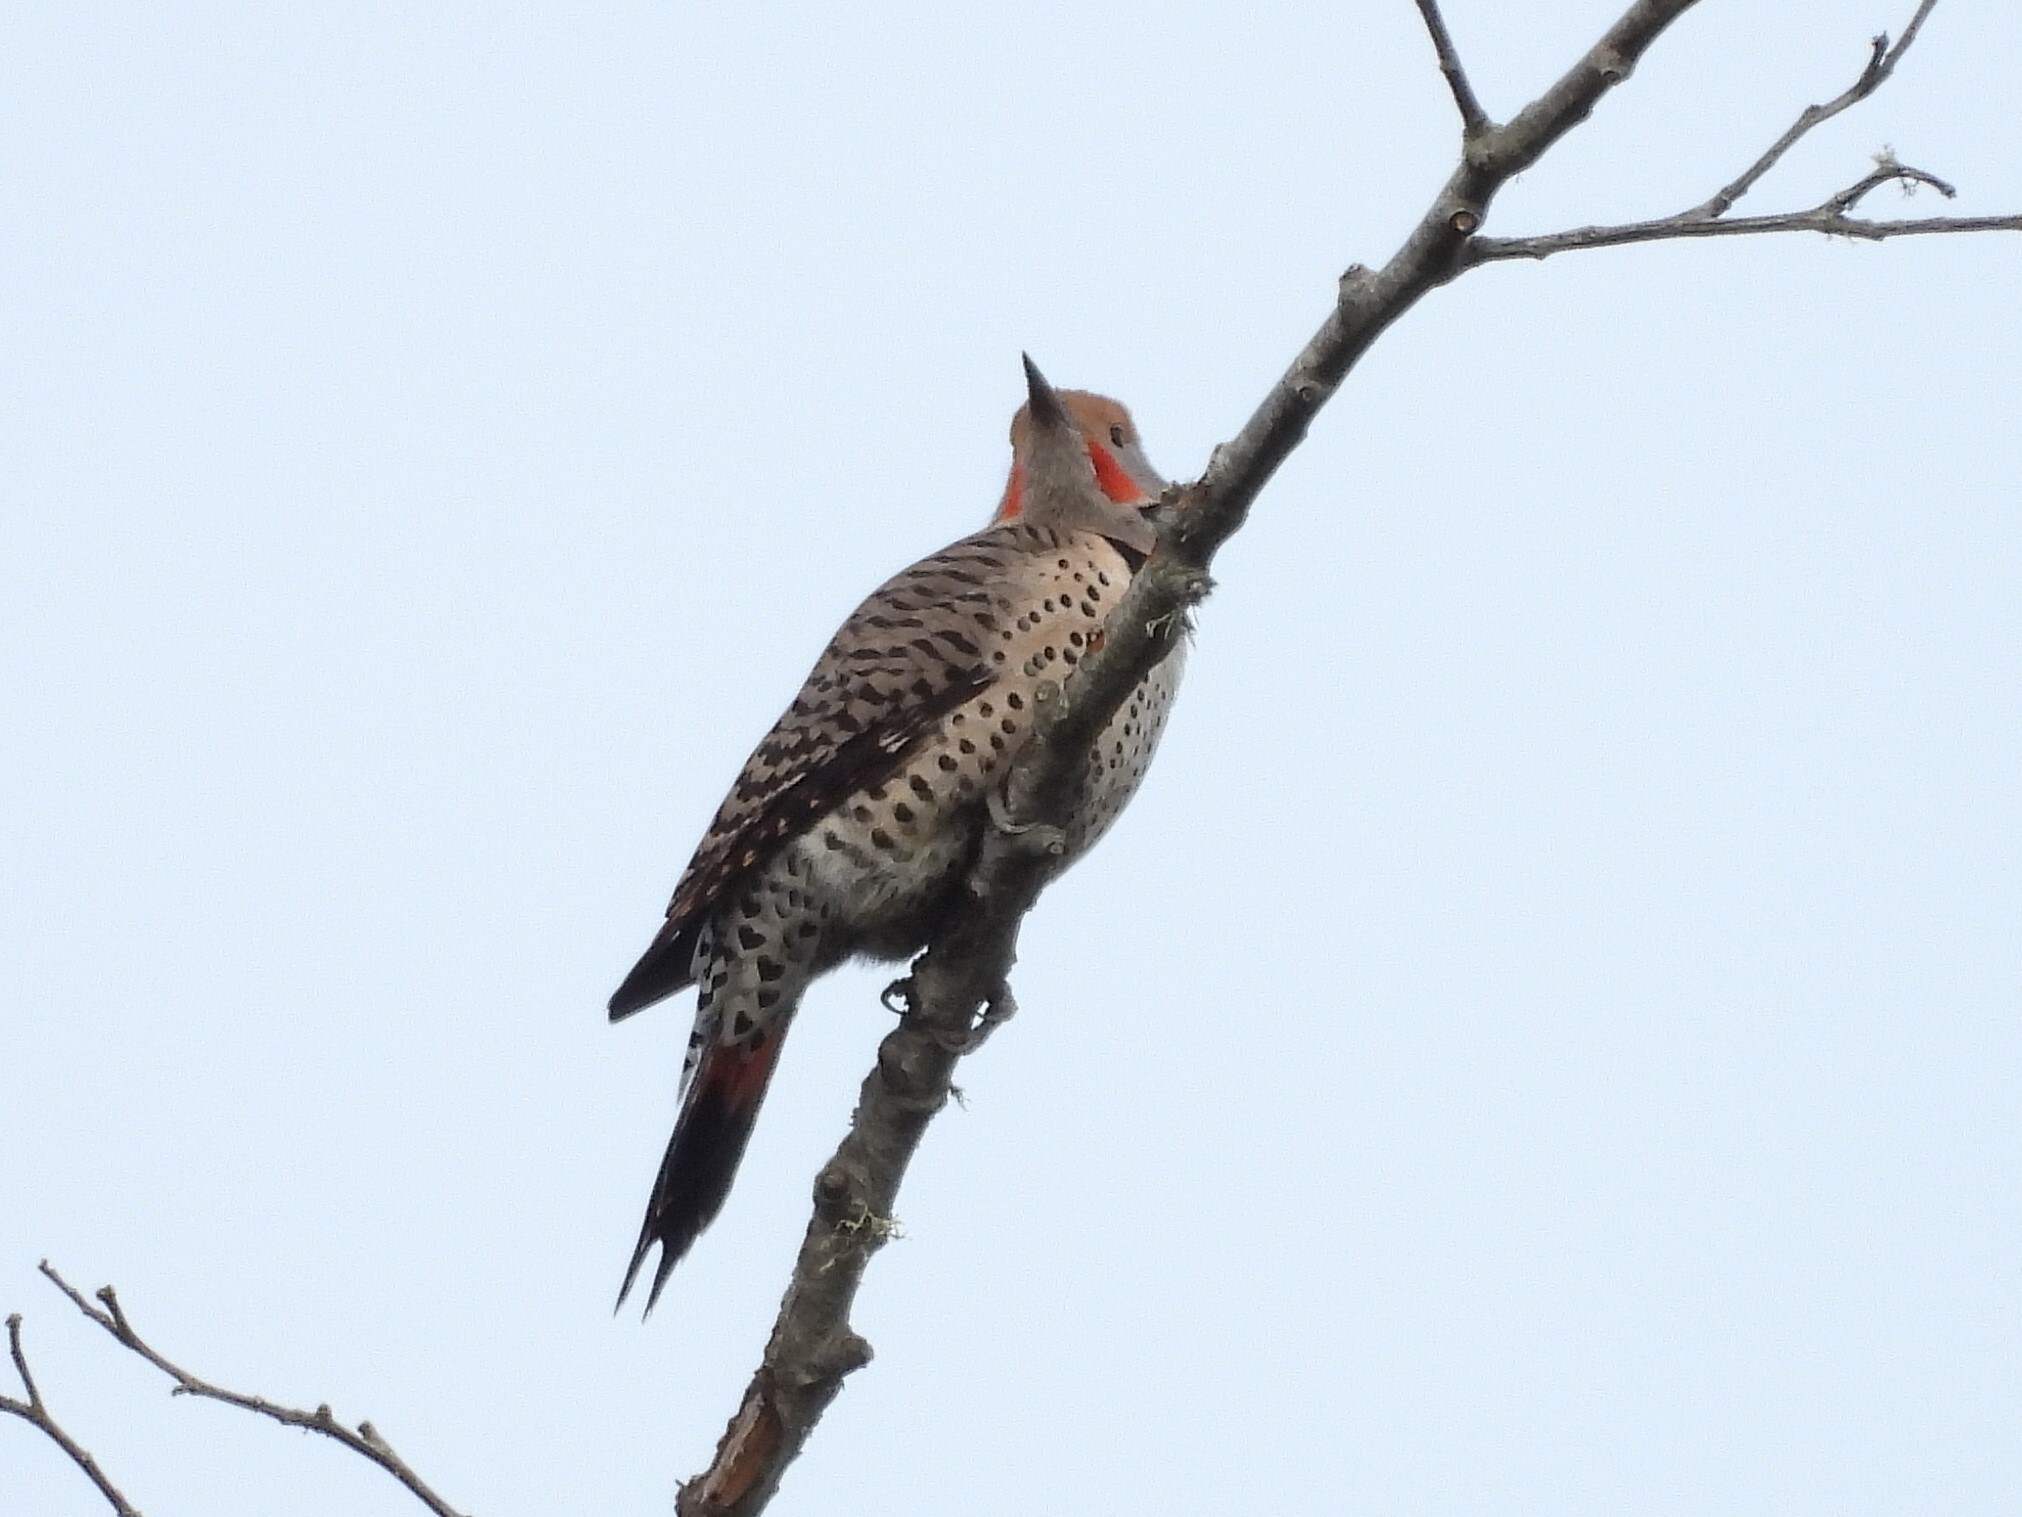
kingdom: Animalia
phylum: Chordata
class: Aves
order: Piciformes
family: Picidae
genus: Colaptes
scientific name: Colaptes auratus
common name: Northern flicker
